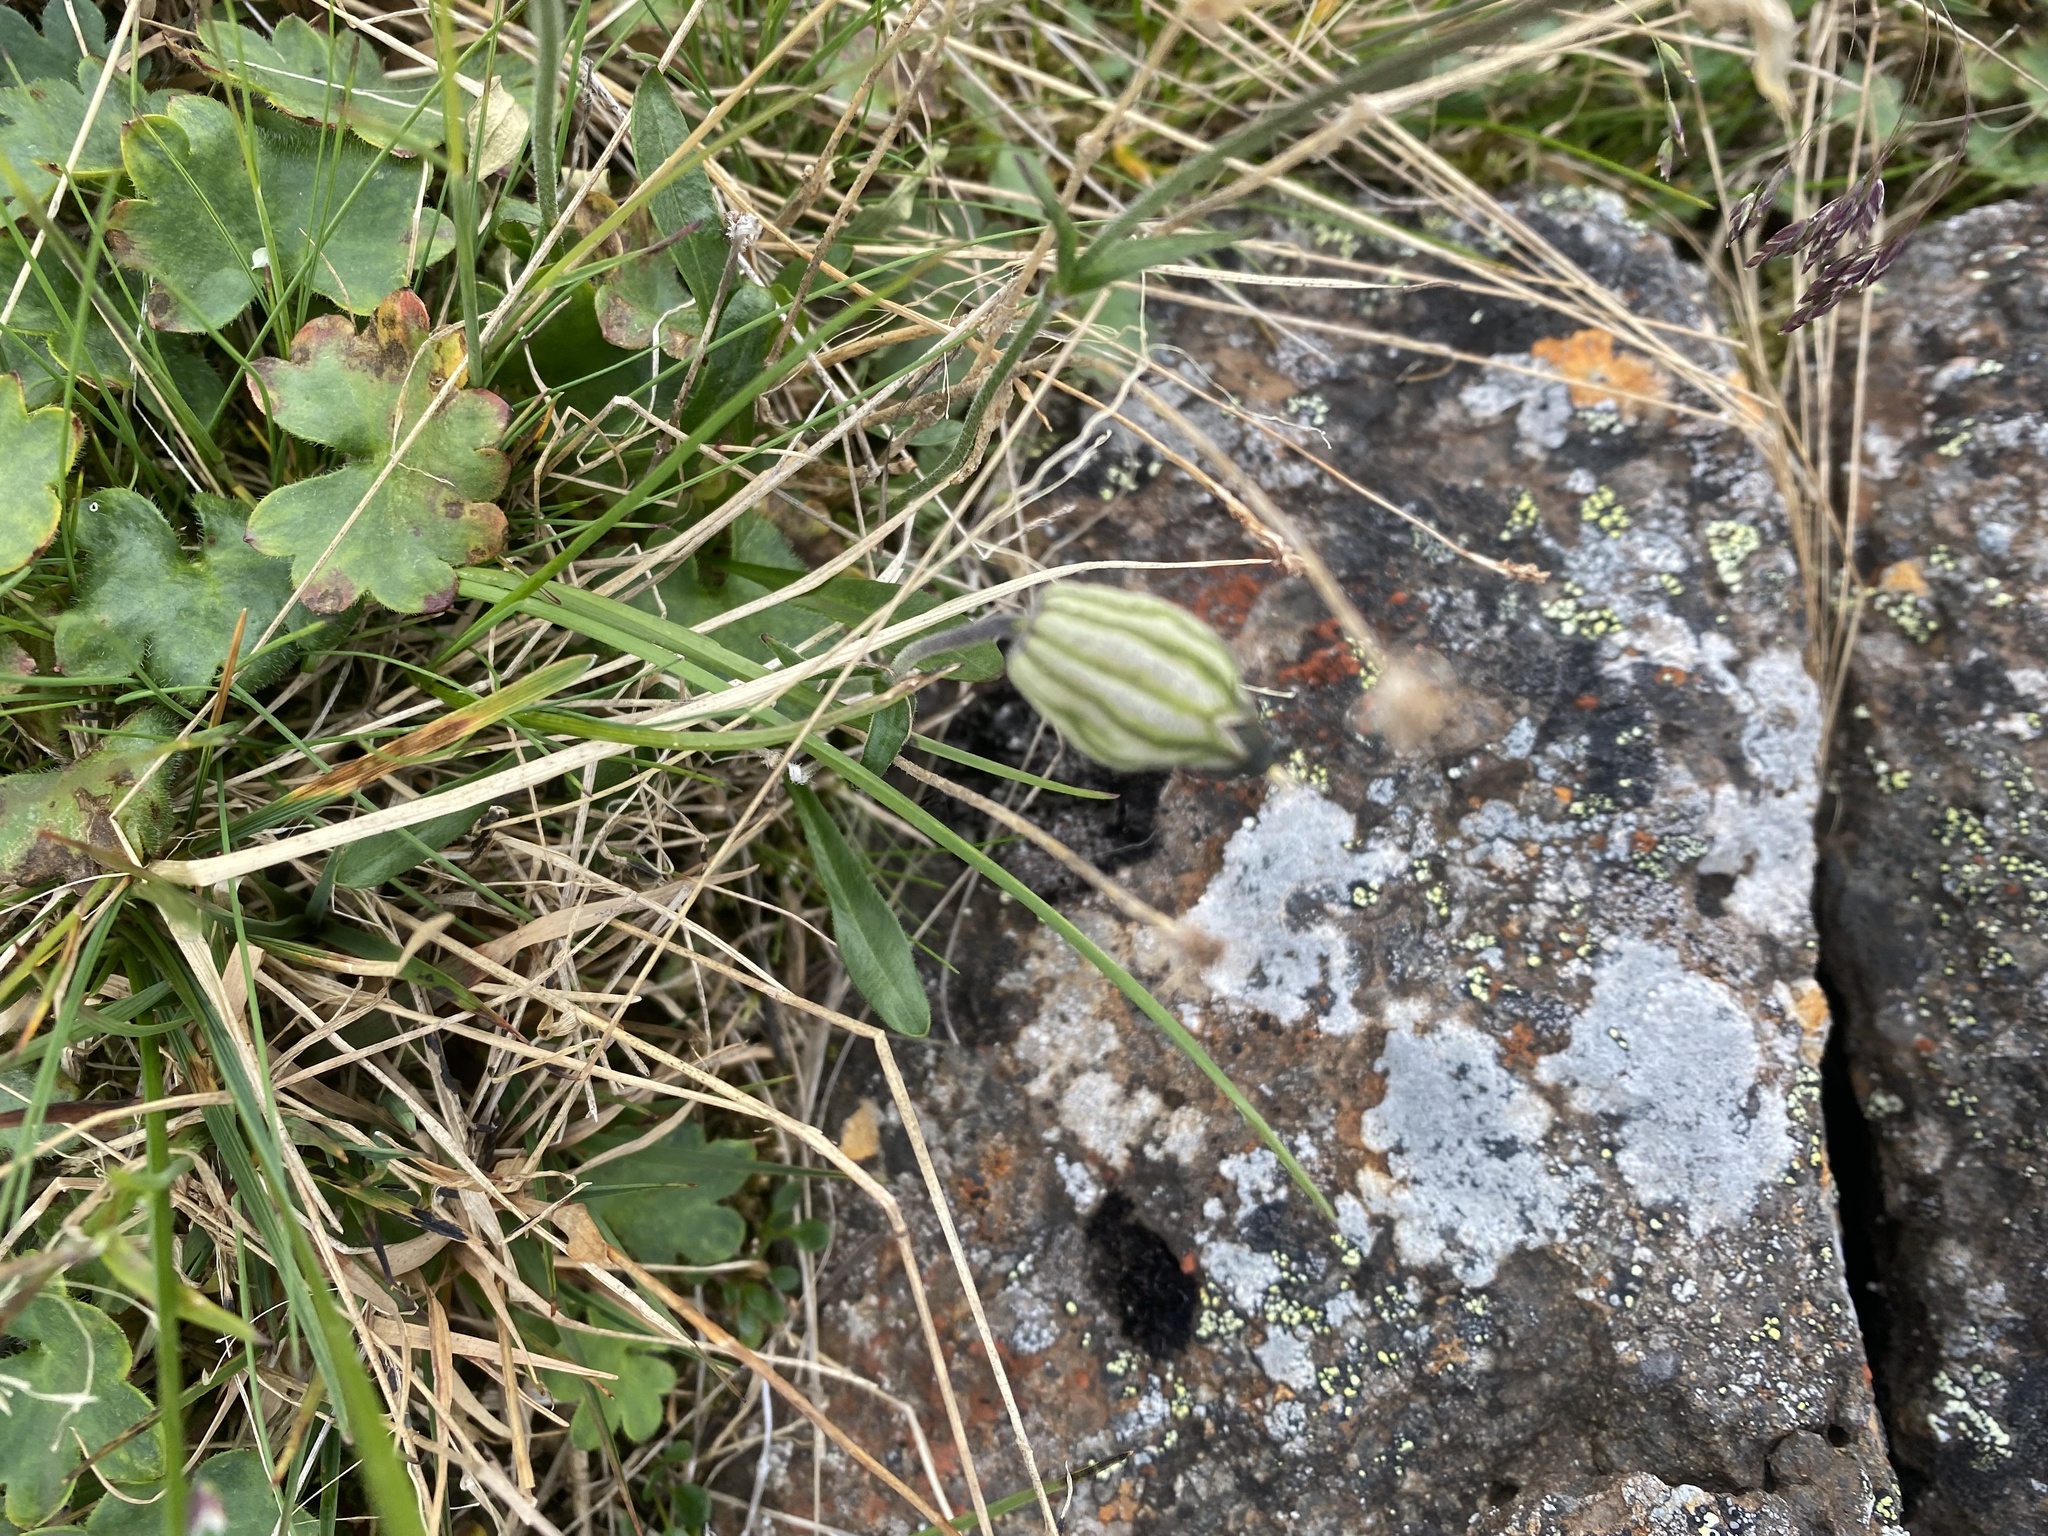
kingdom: Plantae
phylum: Tracheophyta
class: Magnoliopsida
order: Caryophyllales
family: Caryophyllaceae
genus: Silene
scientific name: Silene wahlbergella
